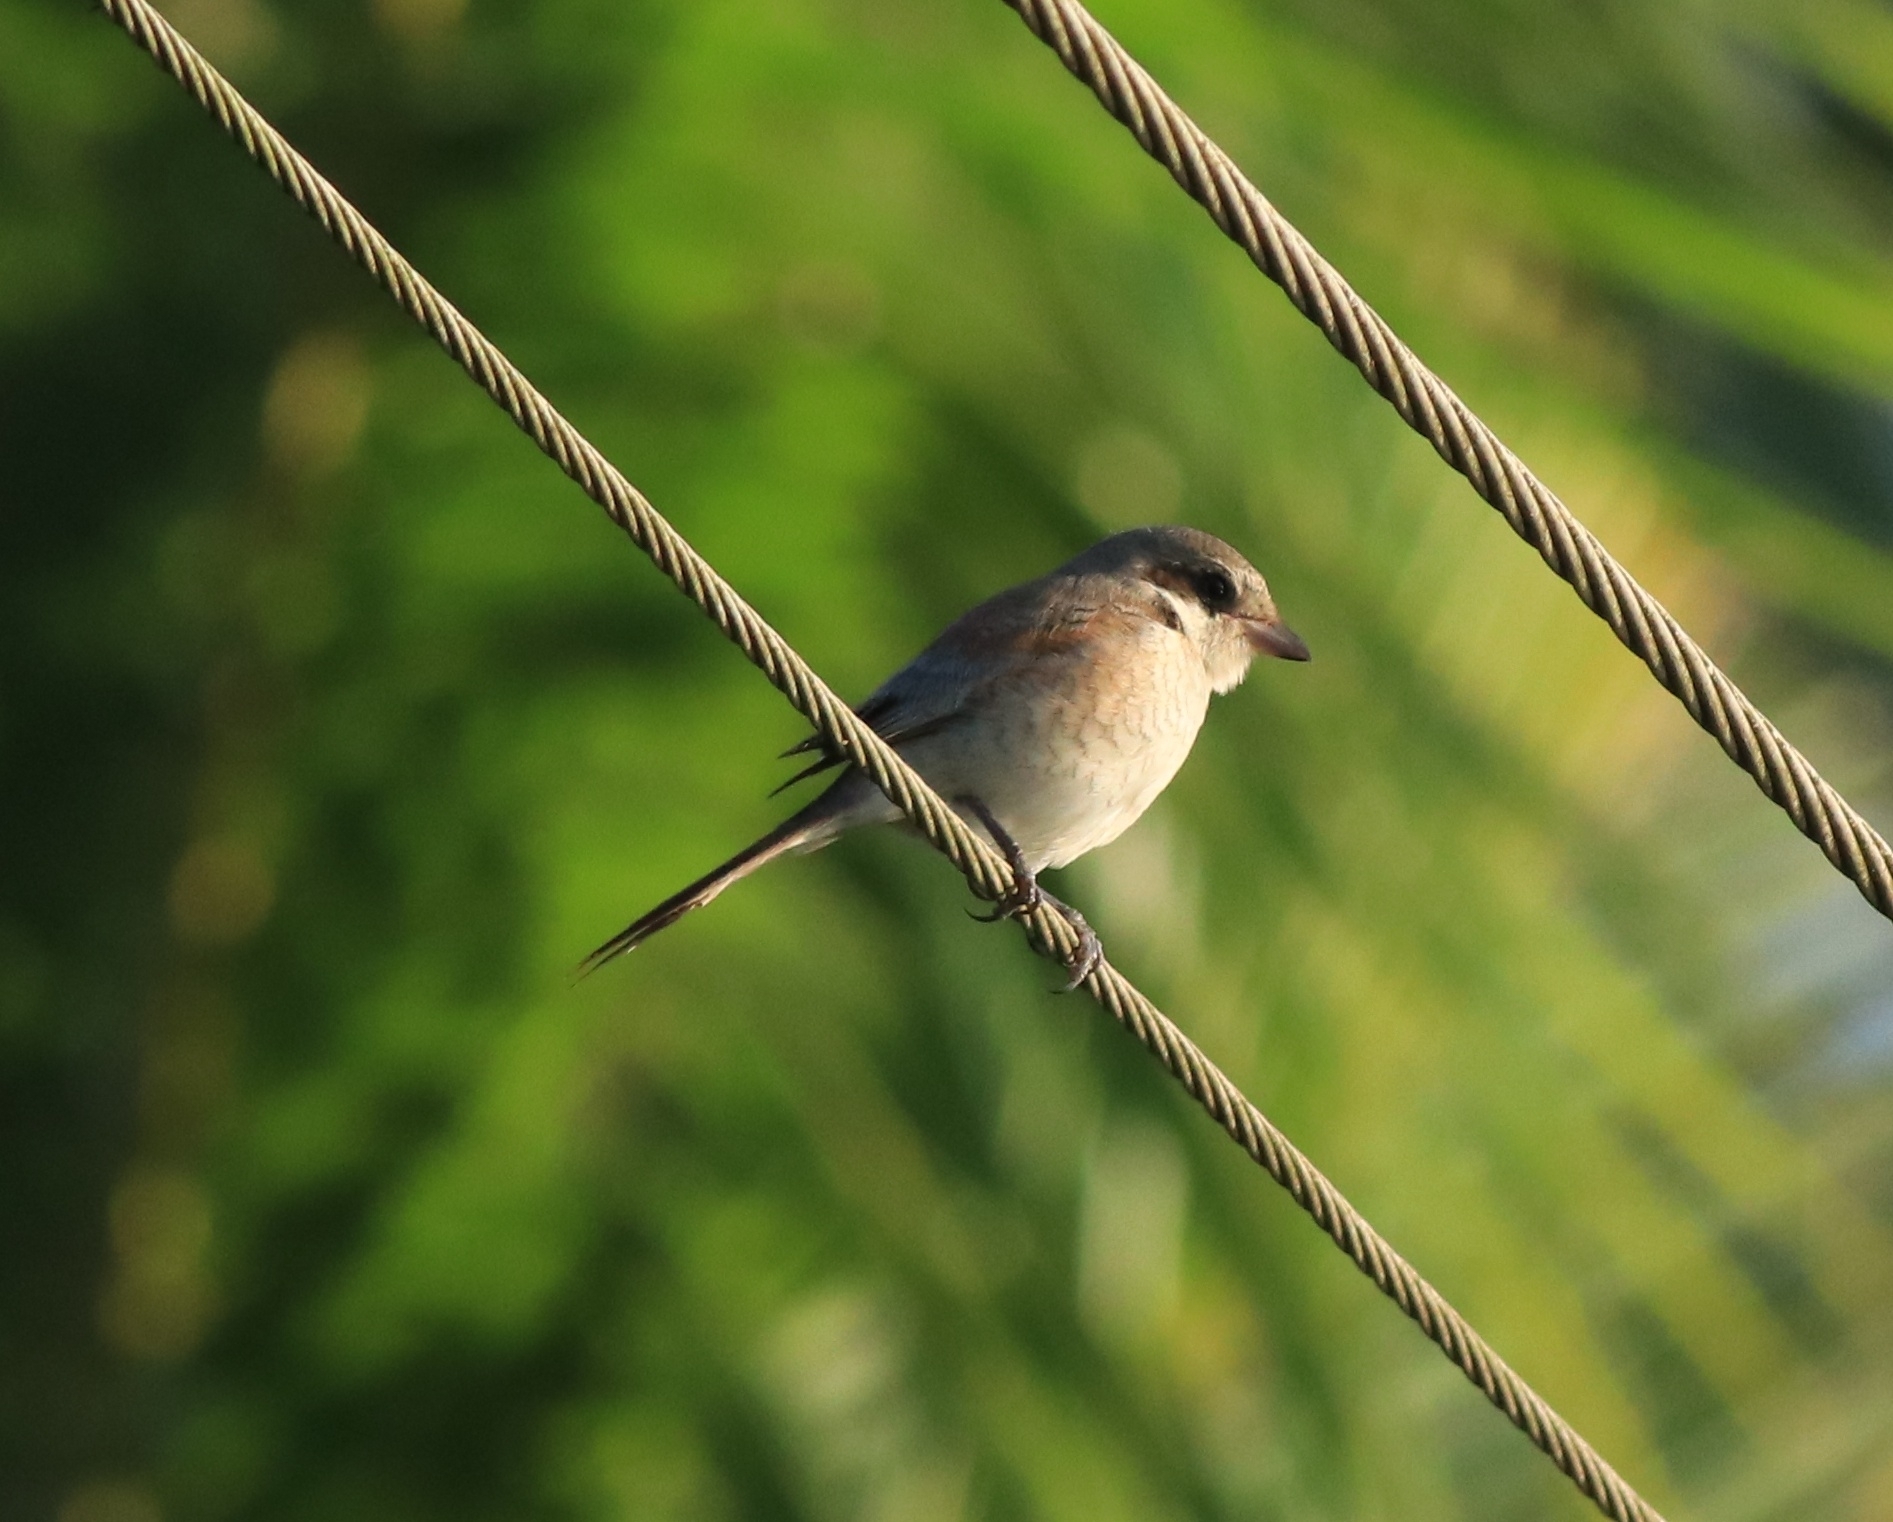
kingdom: Animalia
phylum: Chordata
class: Aves
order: Passeriformes
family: Laniidae
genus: Lanius
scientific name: Lanius cristatus
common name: Brown shrike
